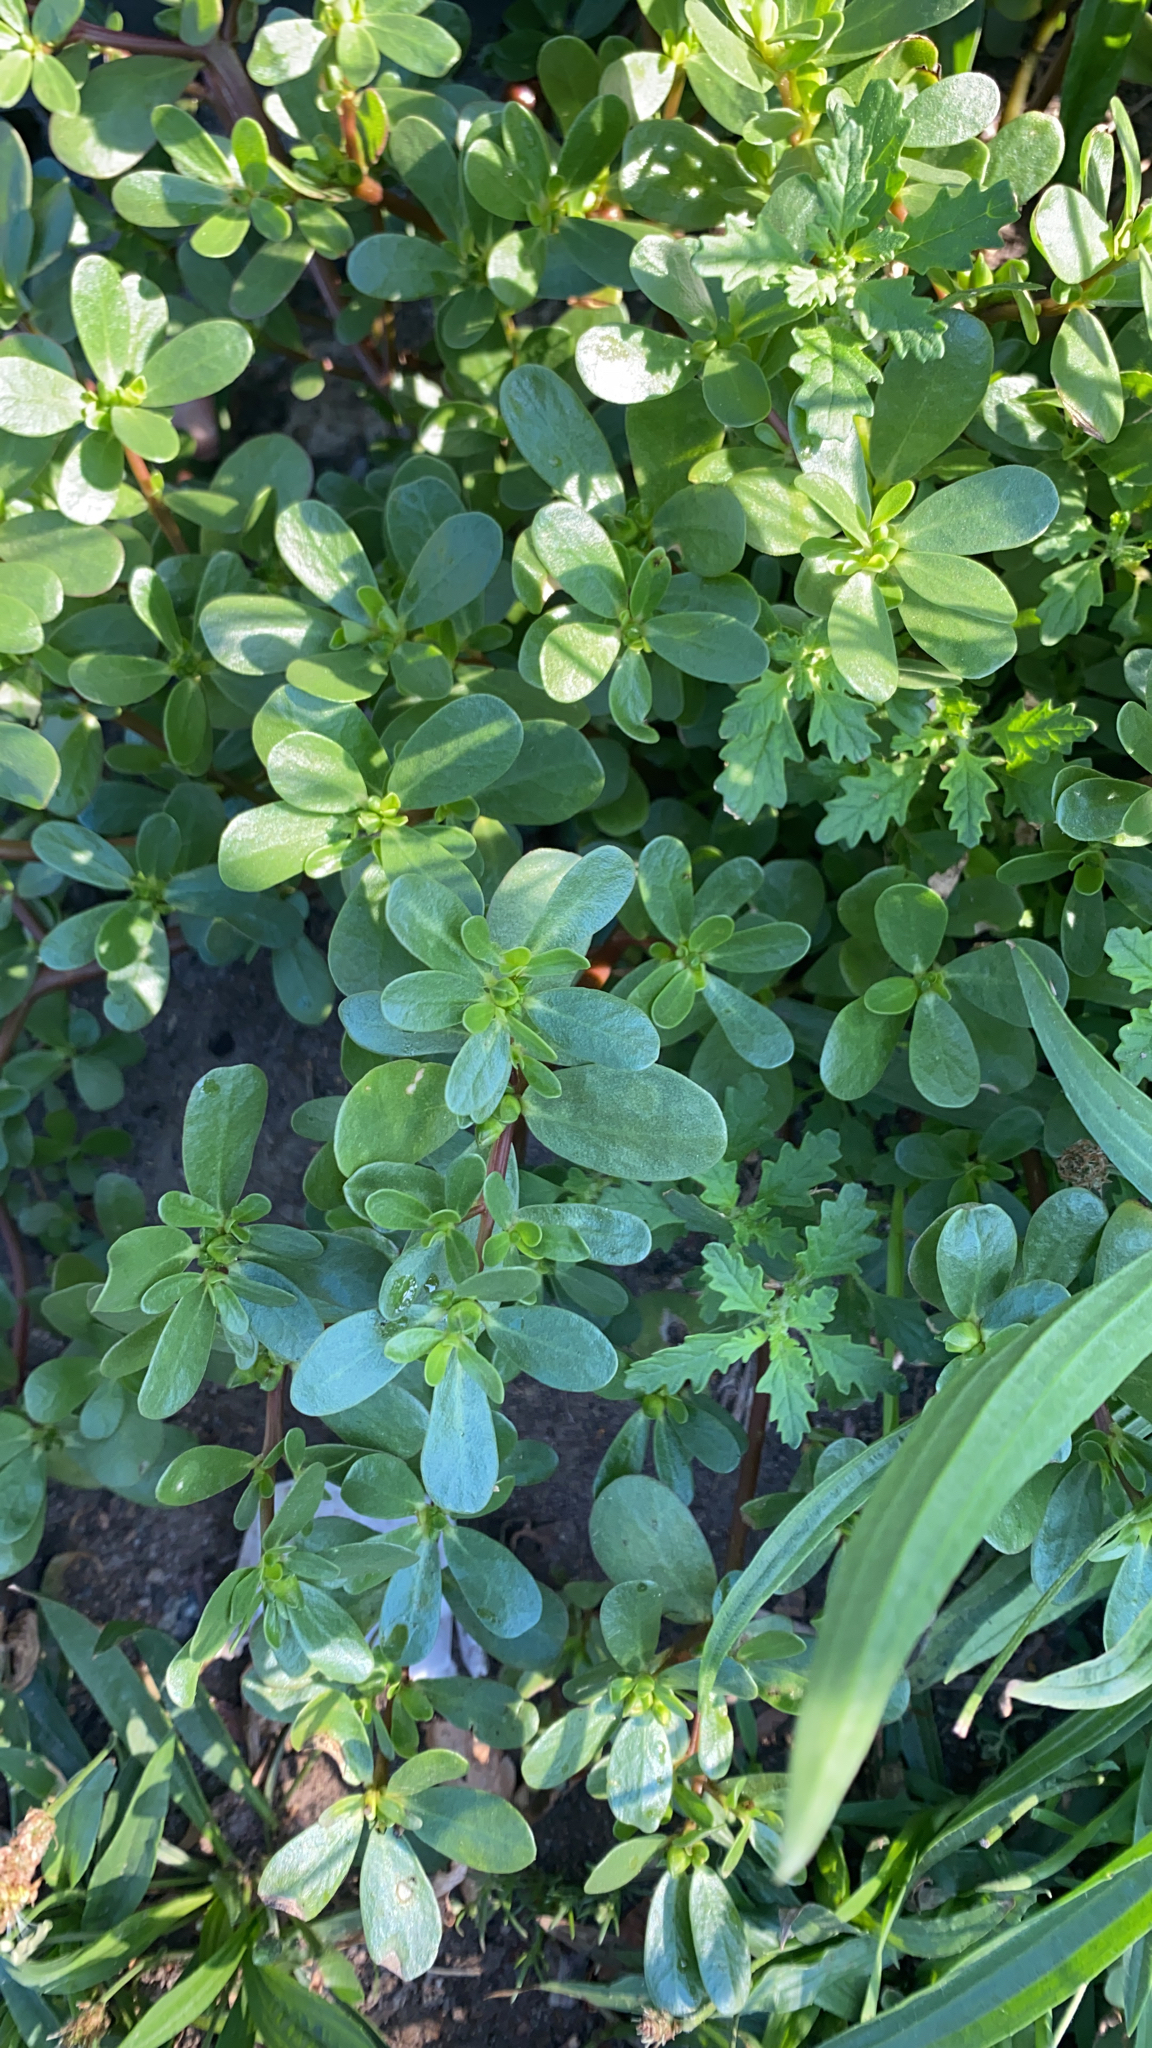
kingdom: Plantae
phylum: Tracheophyta
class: Magnoliopsida
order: Caryophyllales
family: Portulacaceae
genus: Portulaca
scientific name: Portulaca oleracea
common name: Common purslane
